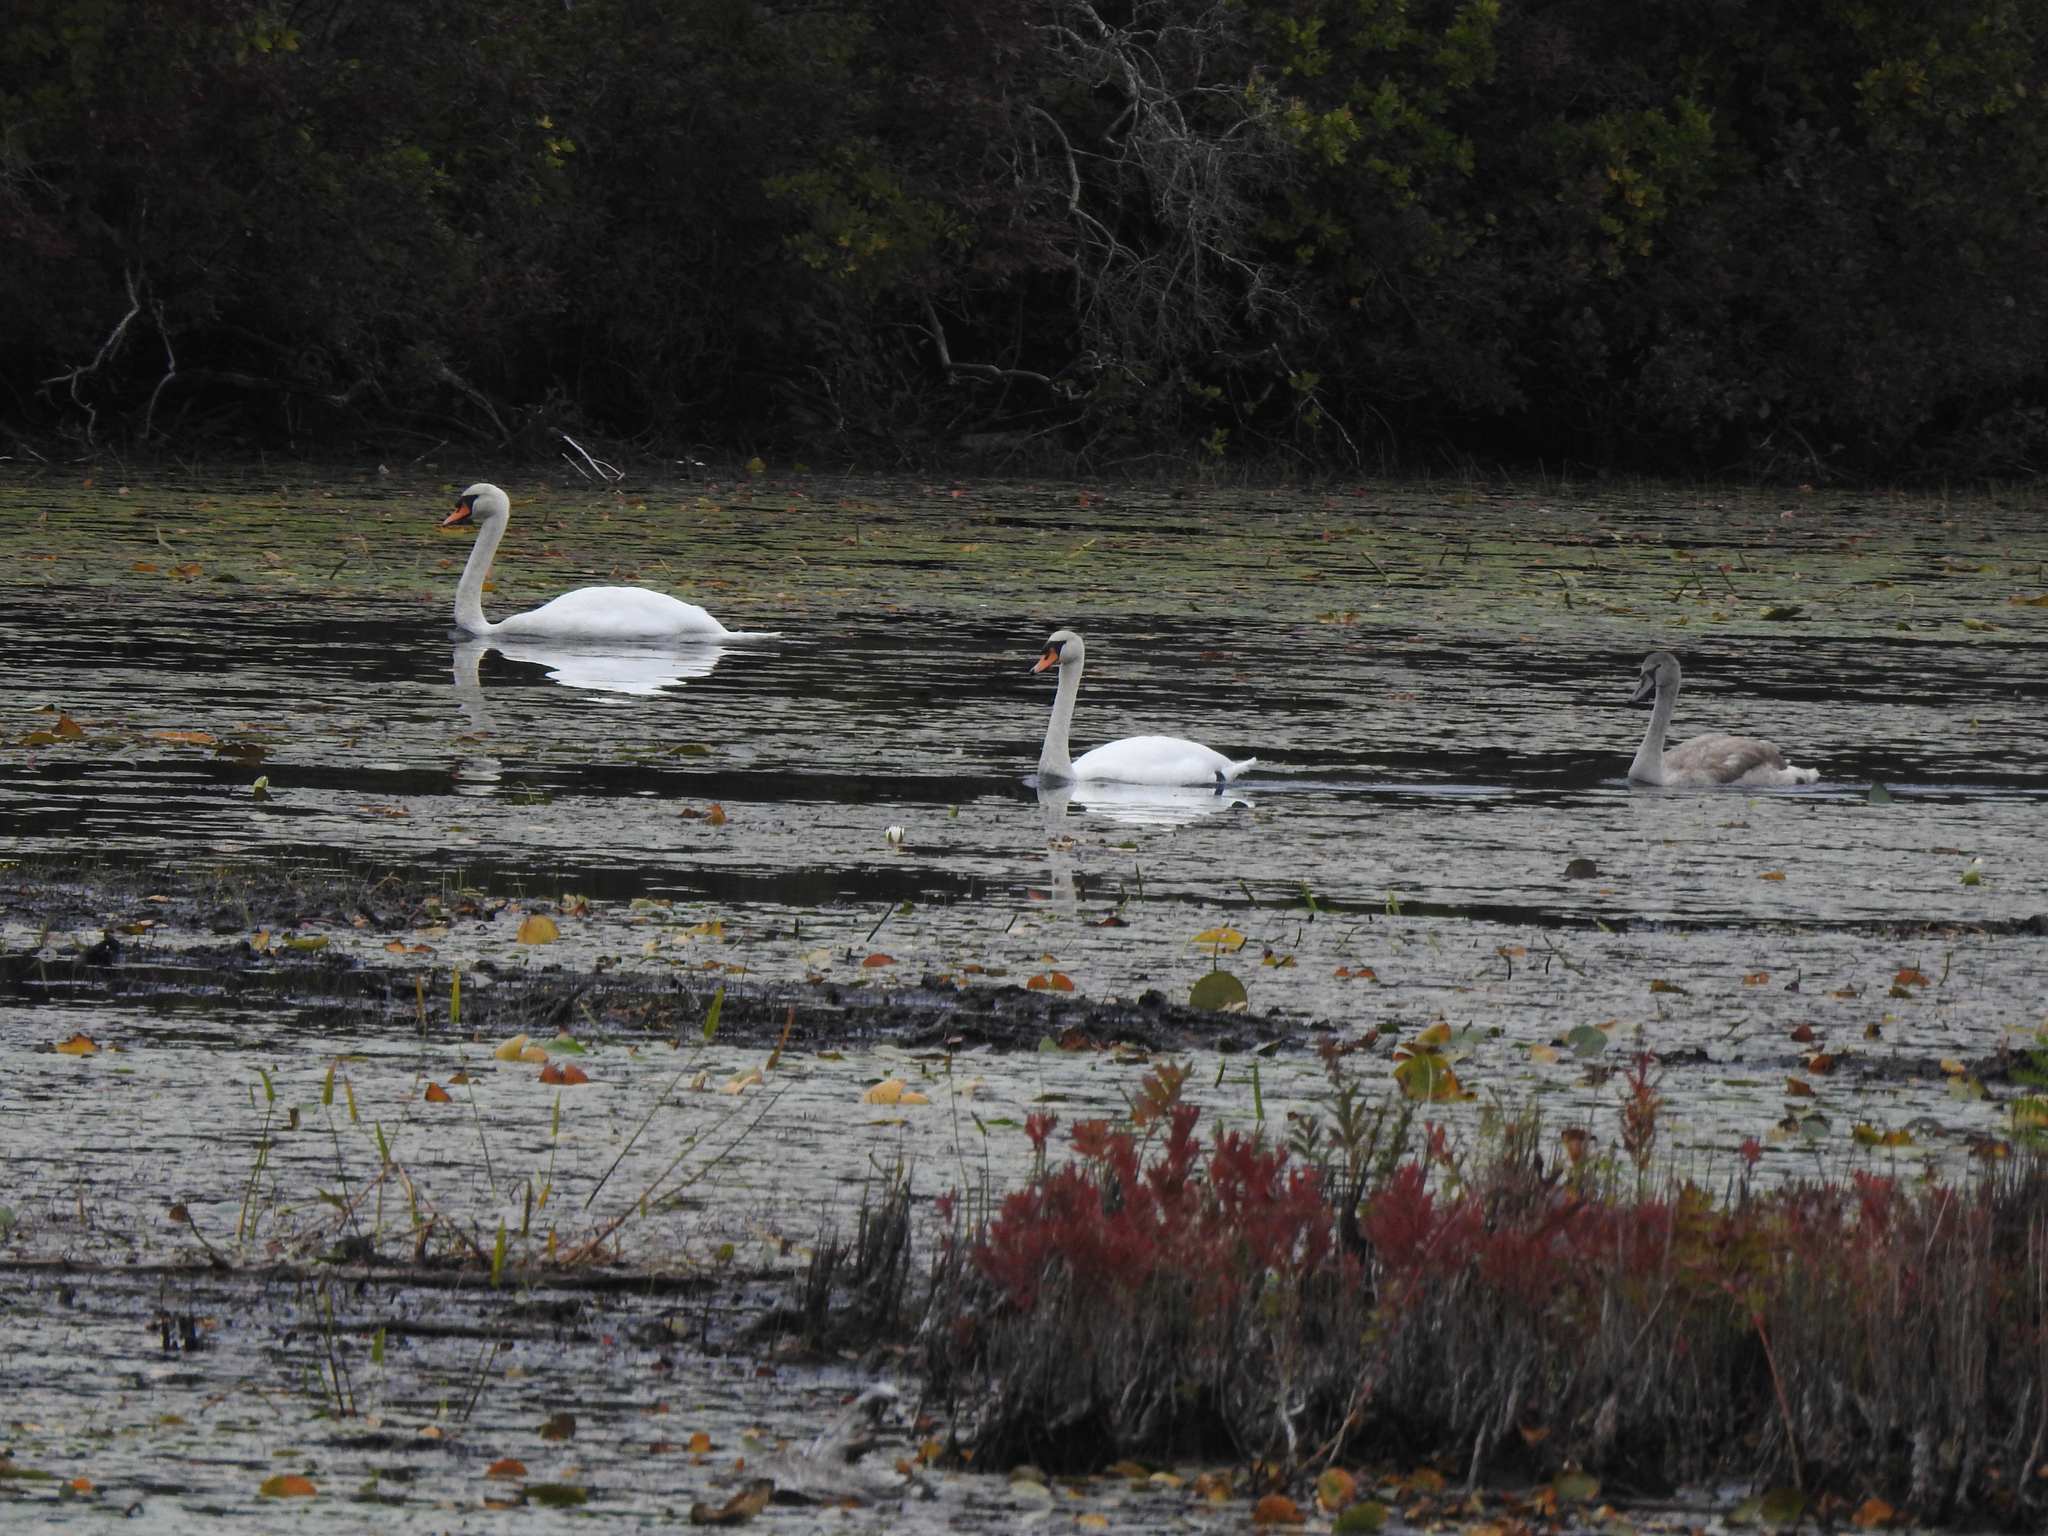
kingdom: Animalia
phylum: Chordata
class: Aves
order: Anseriformes
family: Anatidae
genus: Cygnus
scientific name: Cygnus olor
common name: Mute swan
